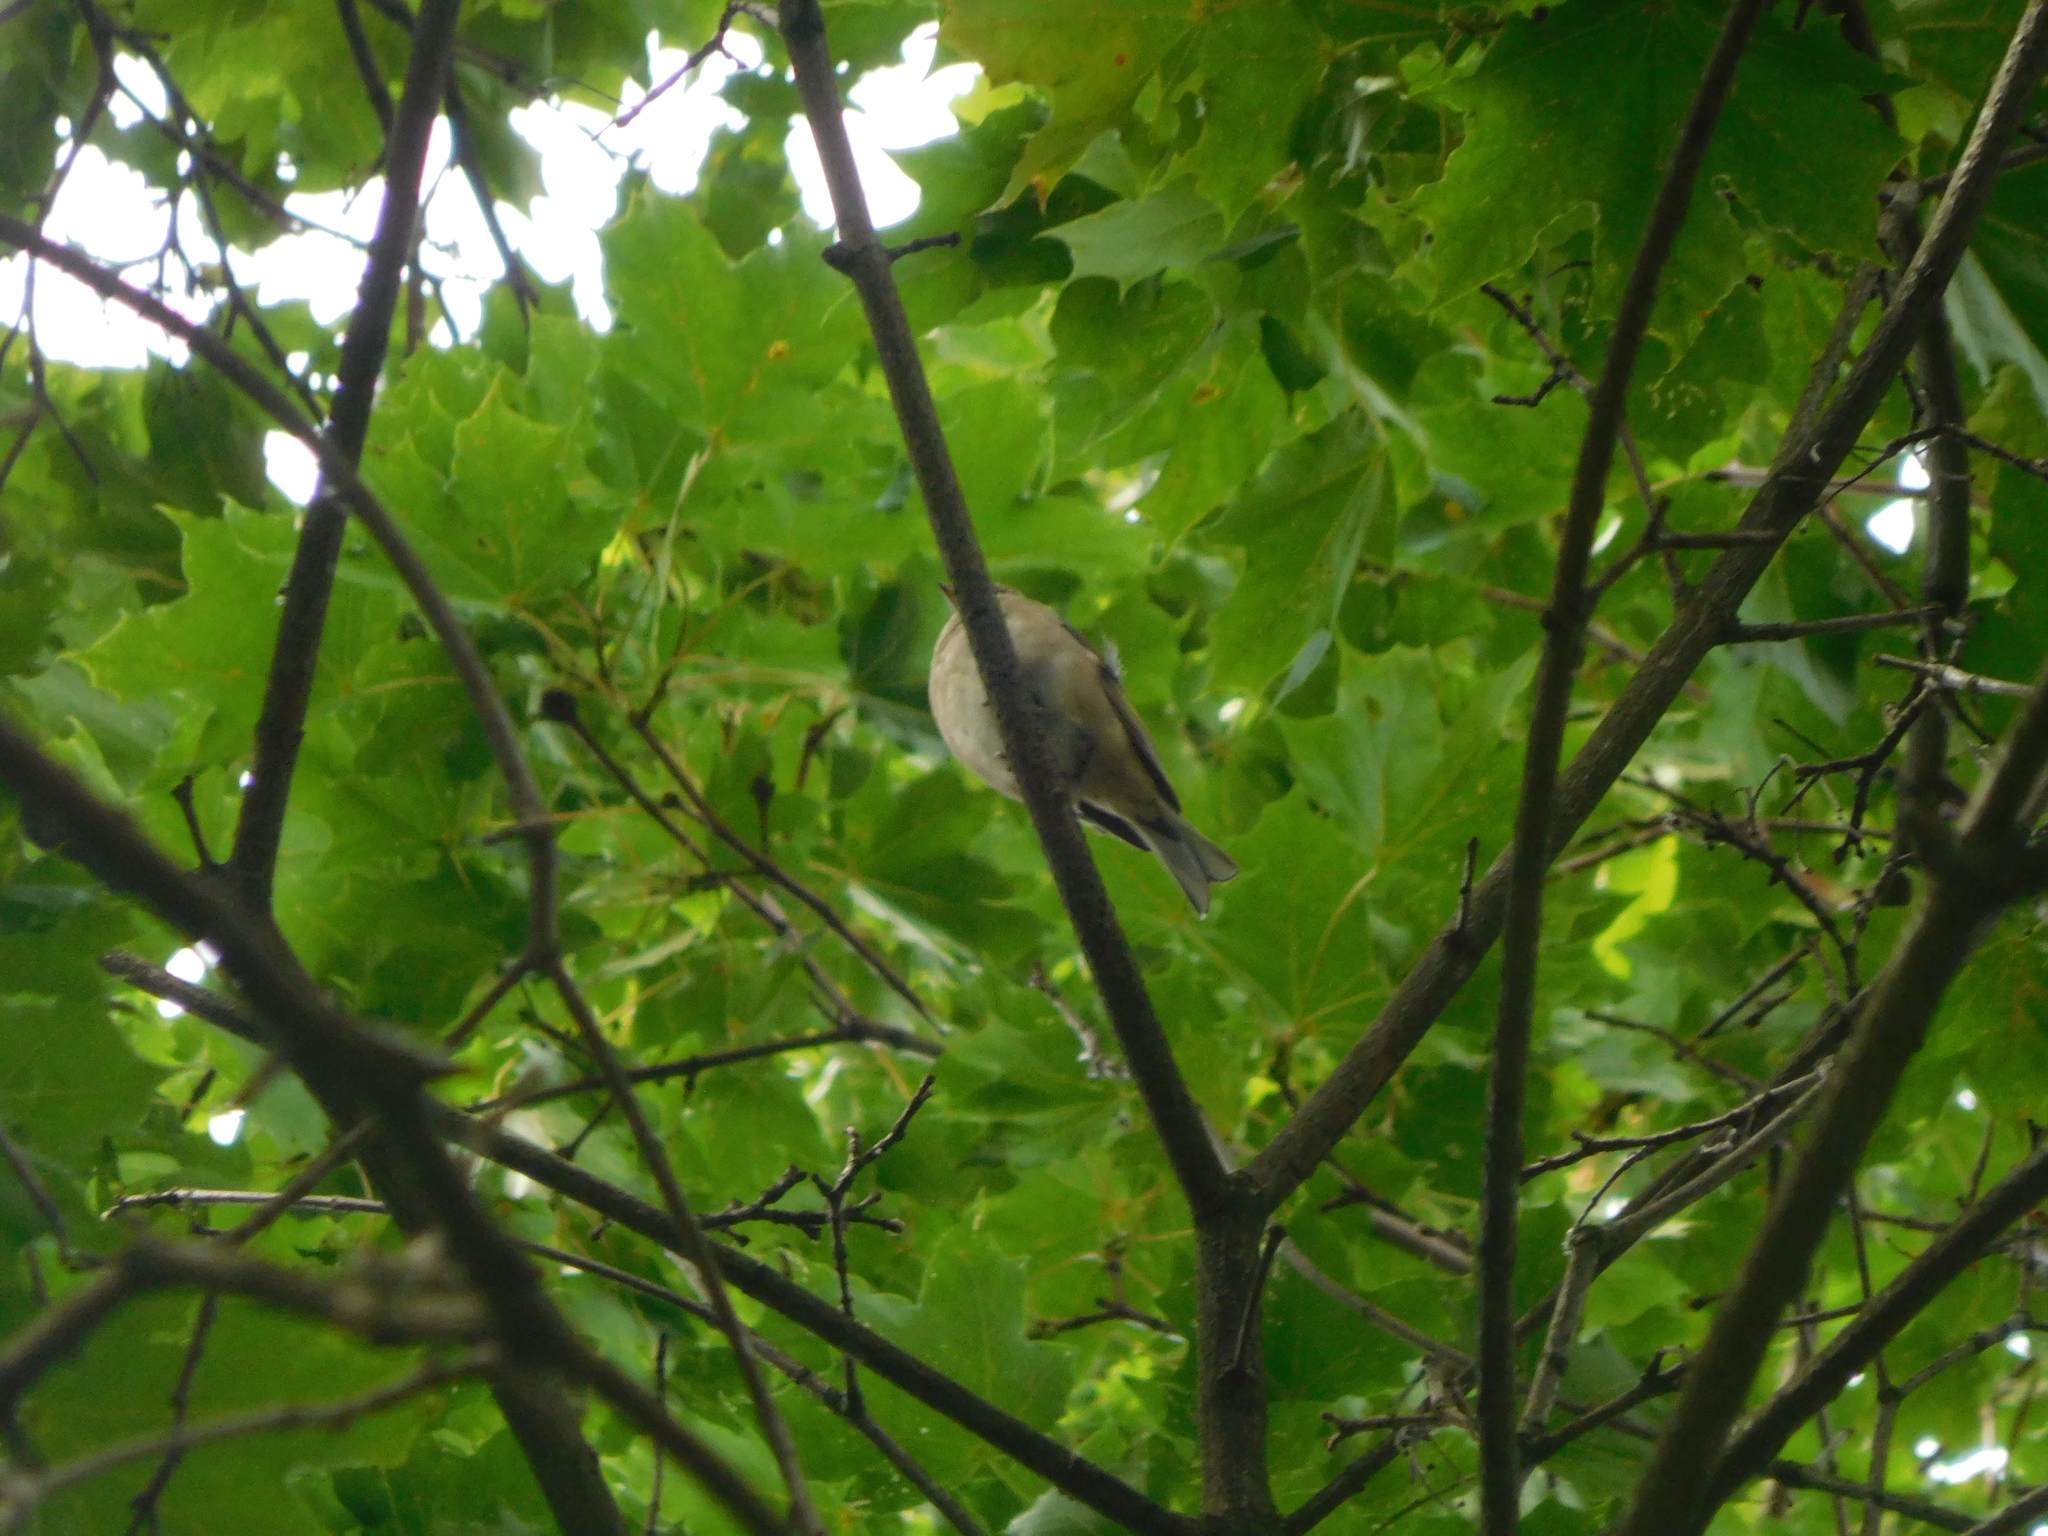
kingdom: Animalia
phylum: Chordata
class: Aves
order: Passeriformes
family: Fringillidae
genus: Fringilla
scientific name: Fringilla coelebs
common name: Common chaffinch
